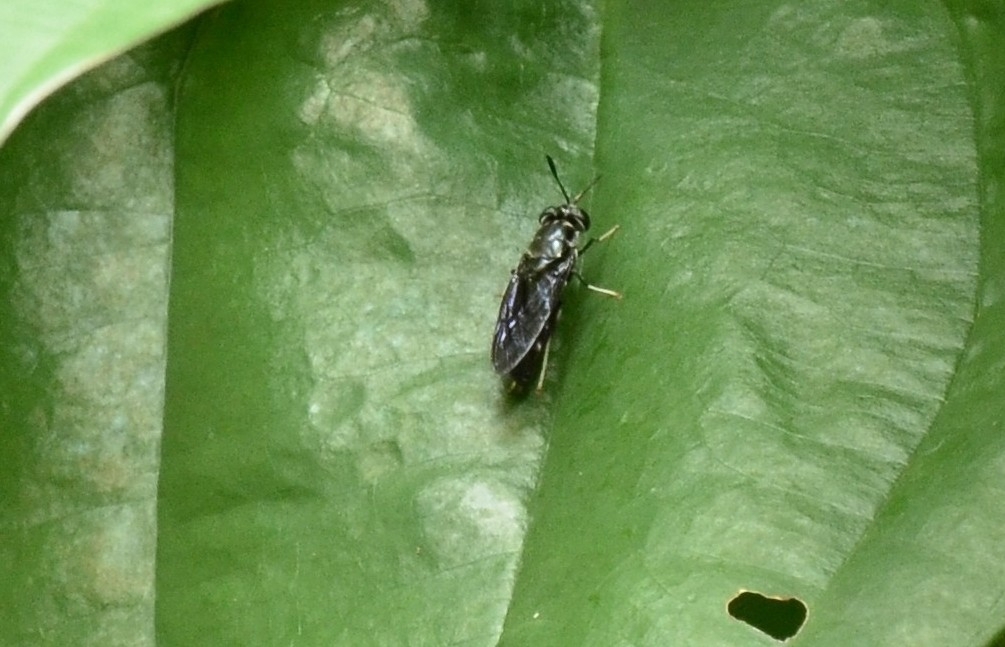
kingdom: Animalia
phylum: Arthropoda
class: Insecta
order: Diptera
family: Stratiomyidae
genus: Hermetia
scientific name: Hermetia illucens
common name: Black soldier fly
